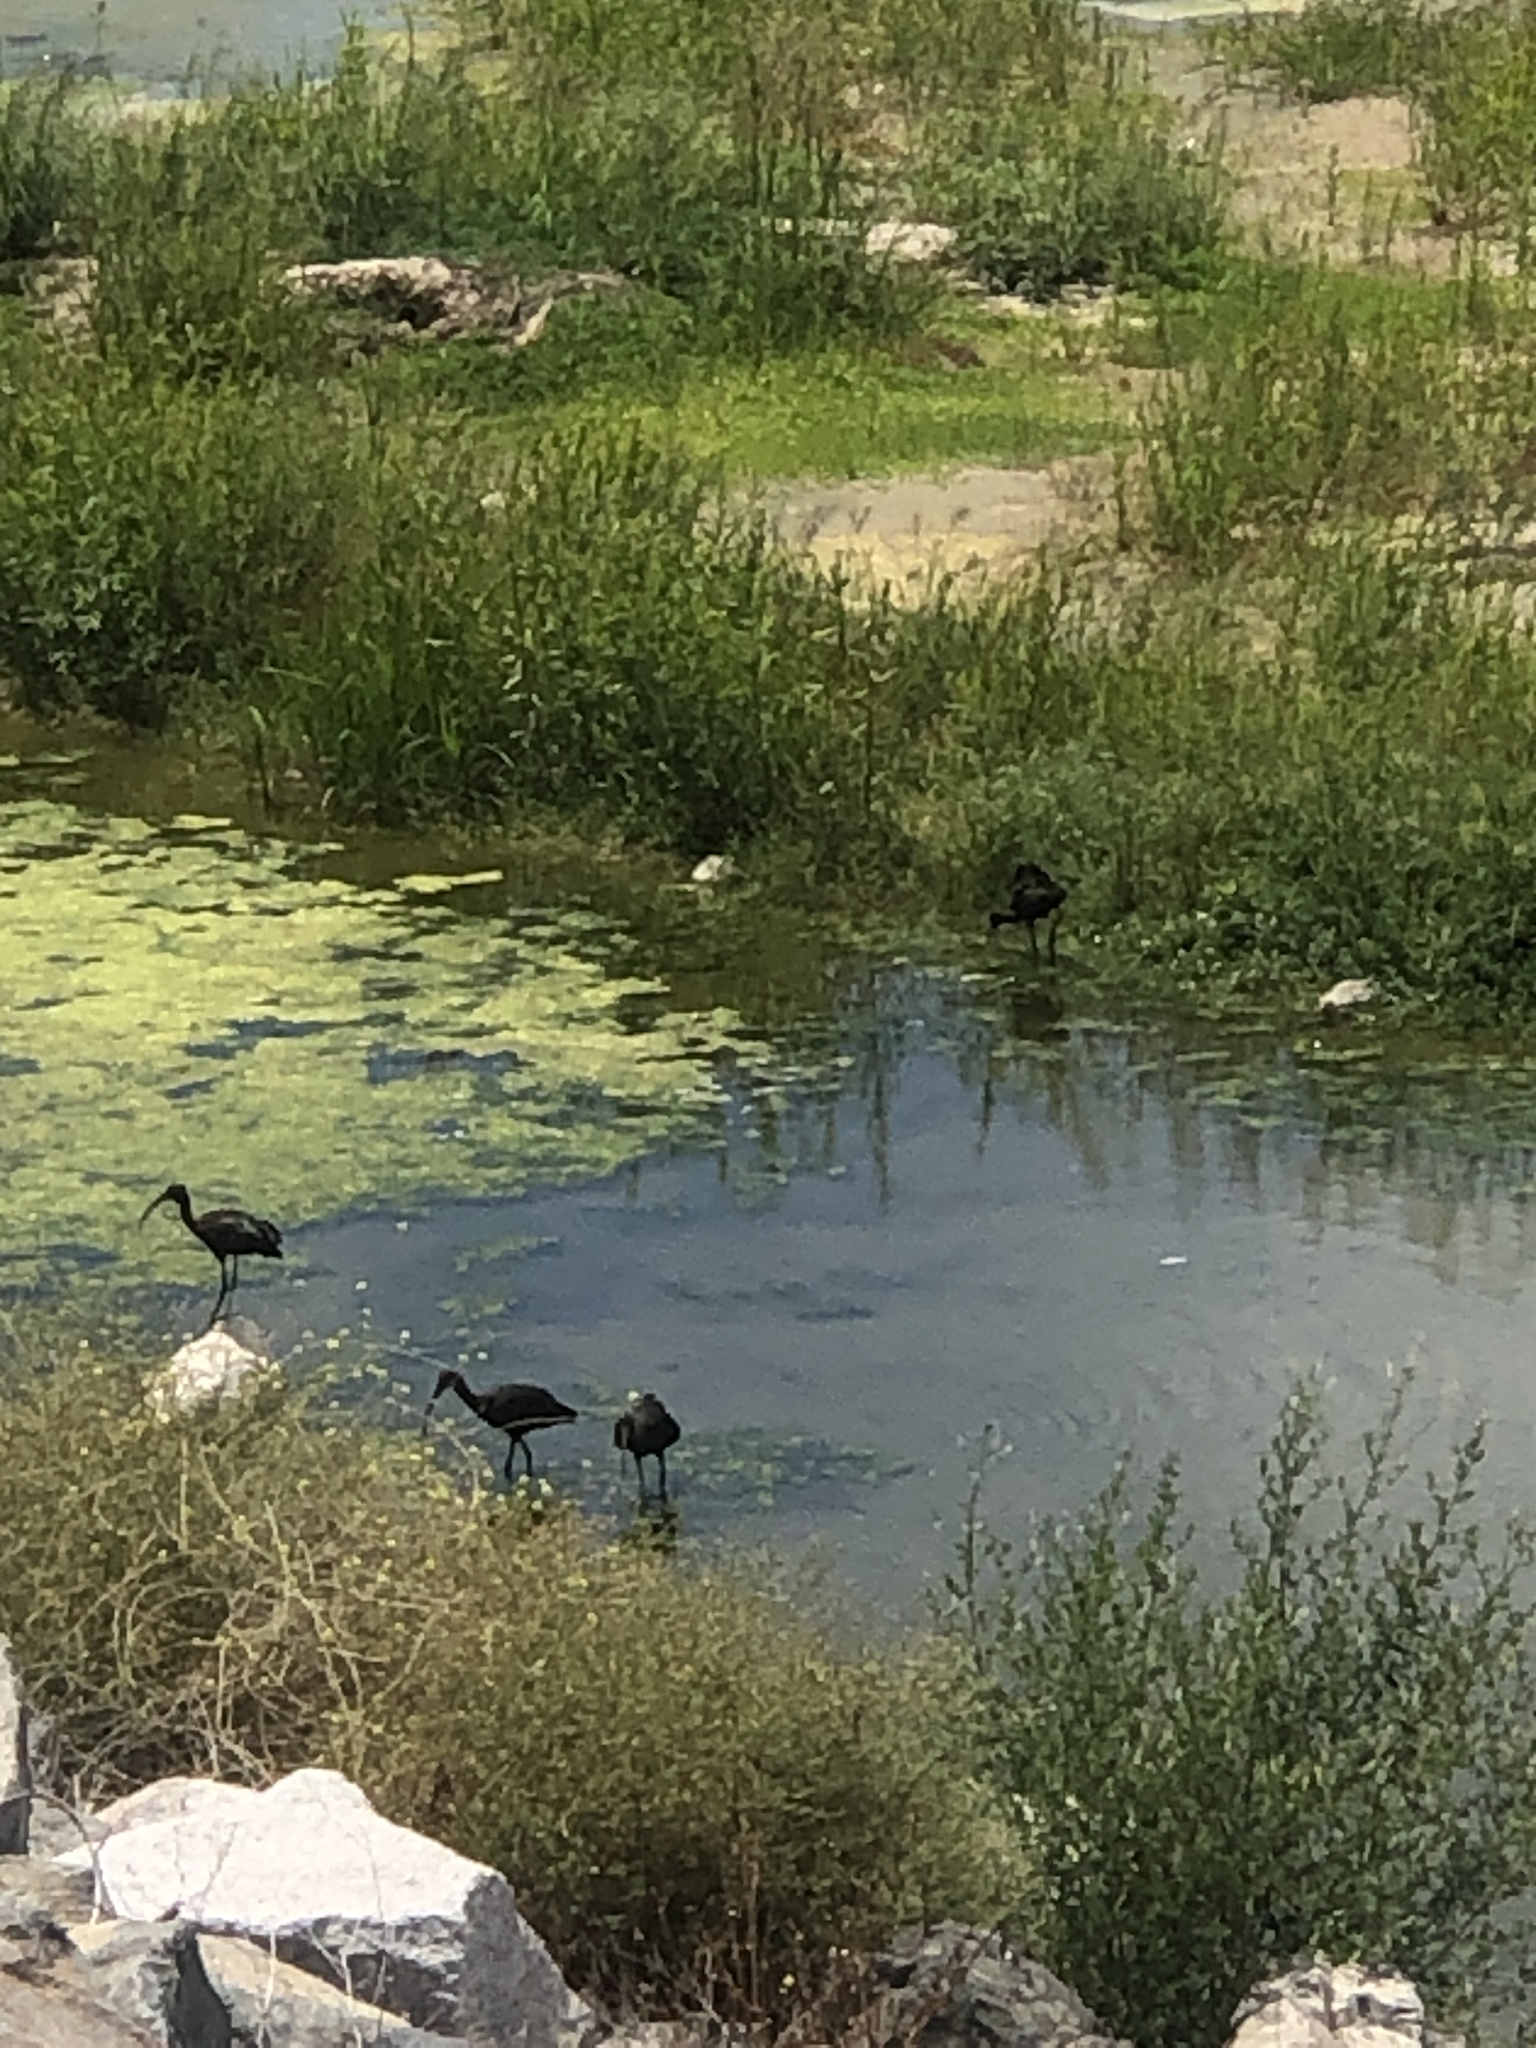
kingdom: Animalia
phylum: Chordata
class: Aves
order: Pelecaniformes
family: Threskiornithidae
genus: Plegadis
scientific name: Plegadis chihi
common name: White-faced ibis
